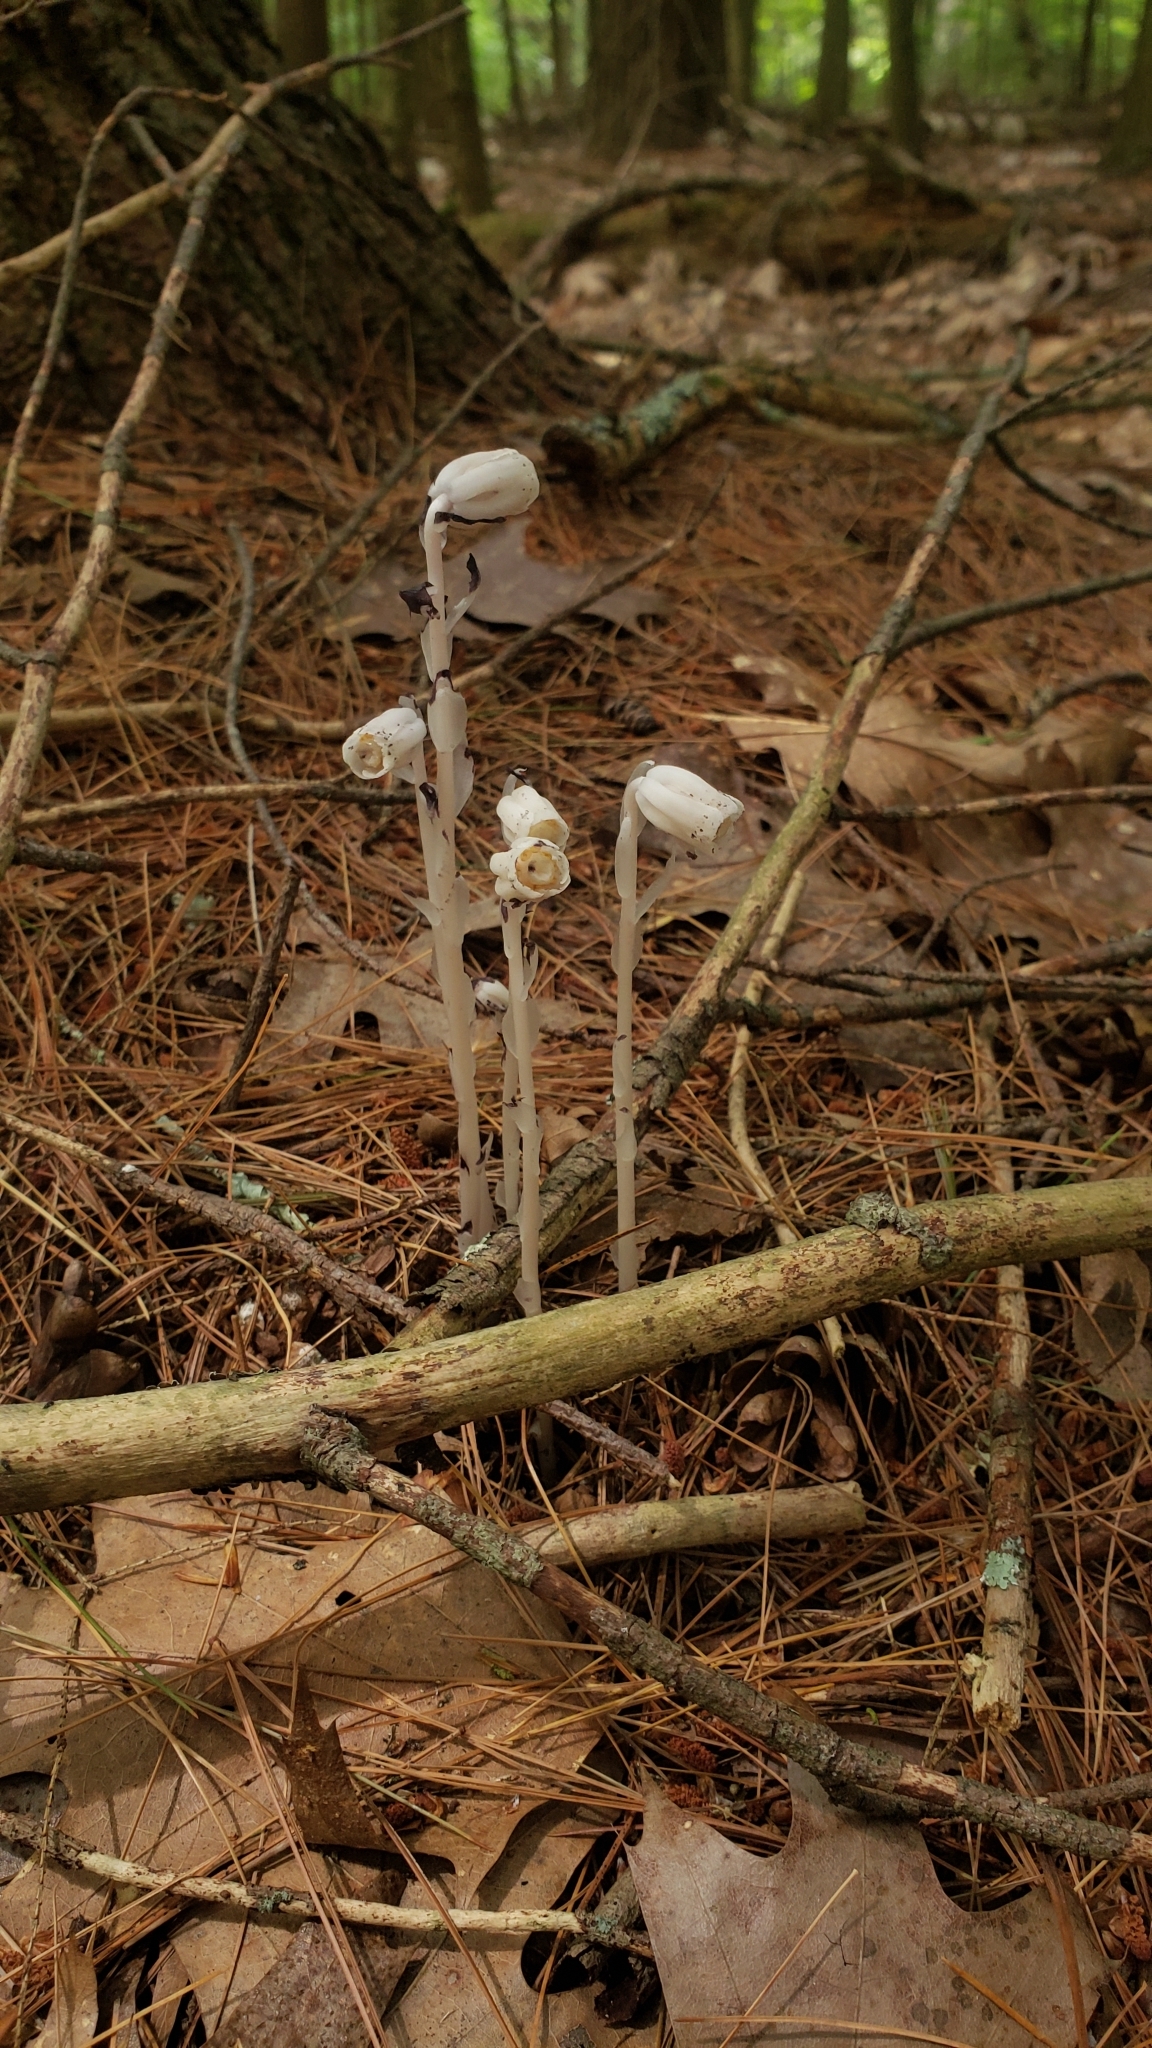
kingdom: Plantae
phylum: Tracheophyta
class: Magnoliopsida
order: Ericales
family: Ericaceae
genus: Monotropa
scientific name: Monotropa uniflora
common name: Convulsion root
